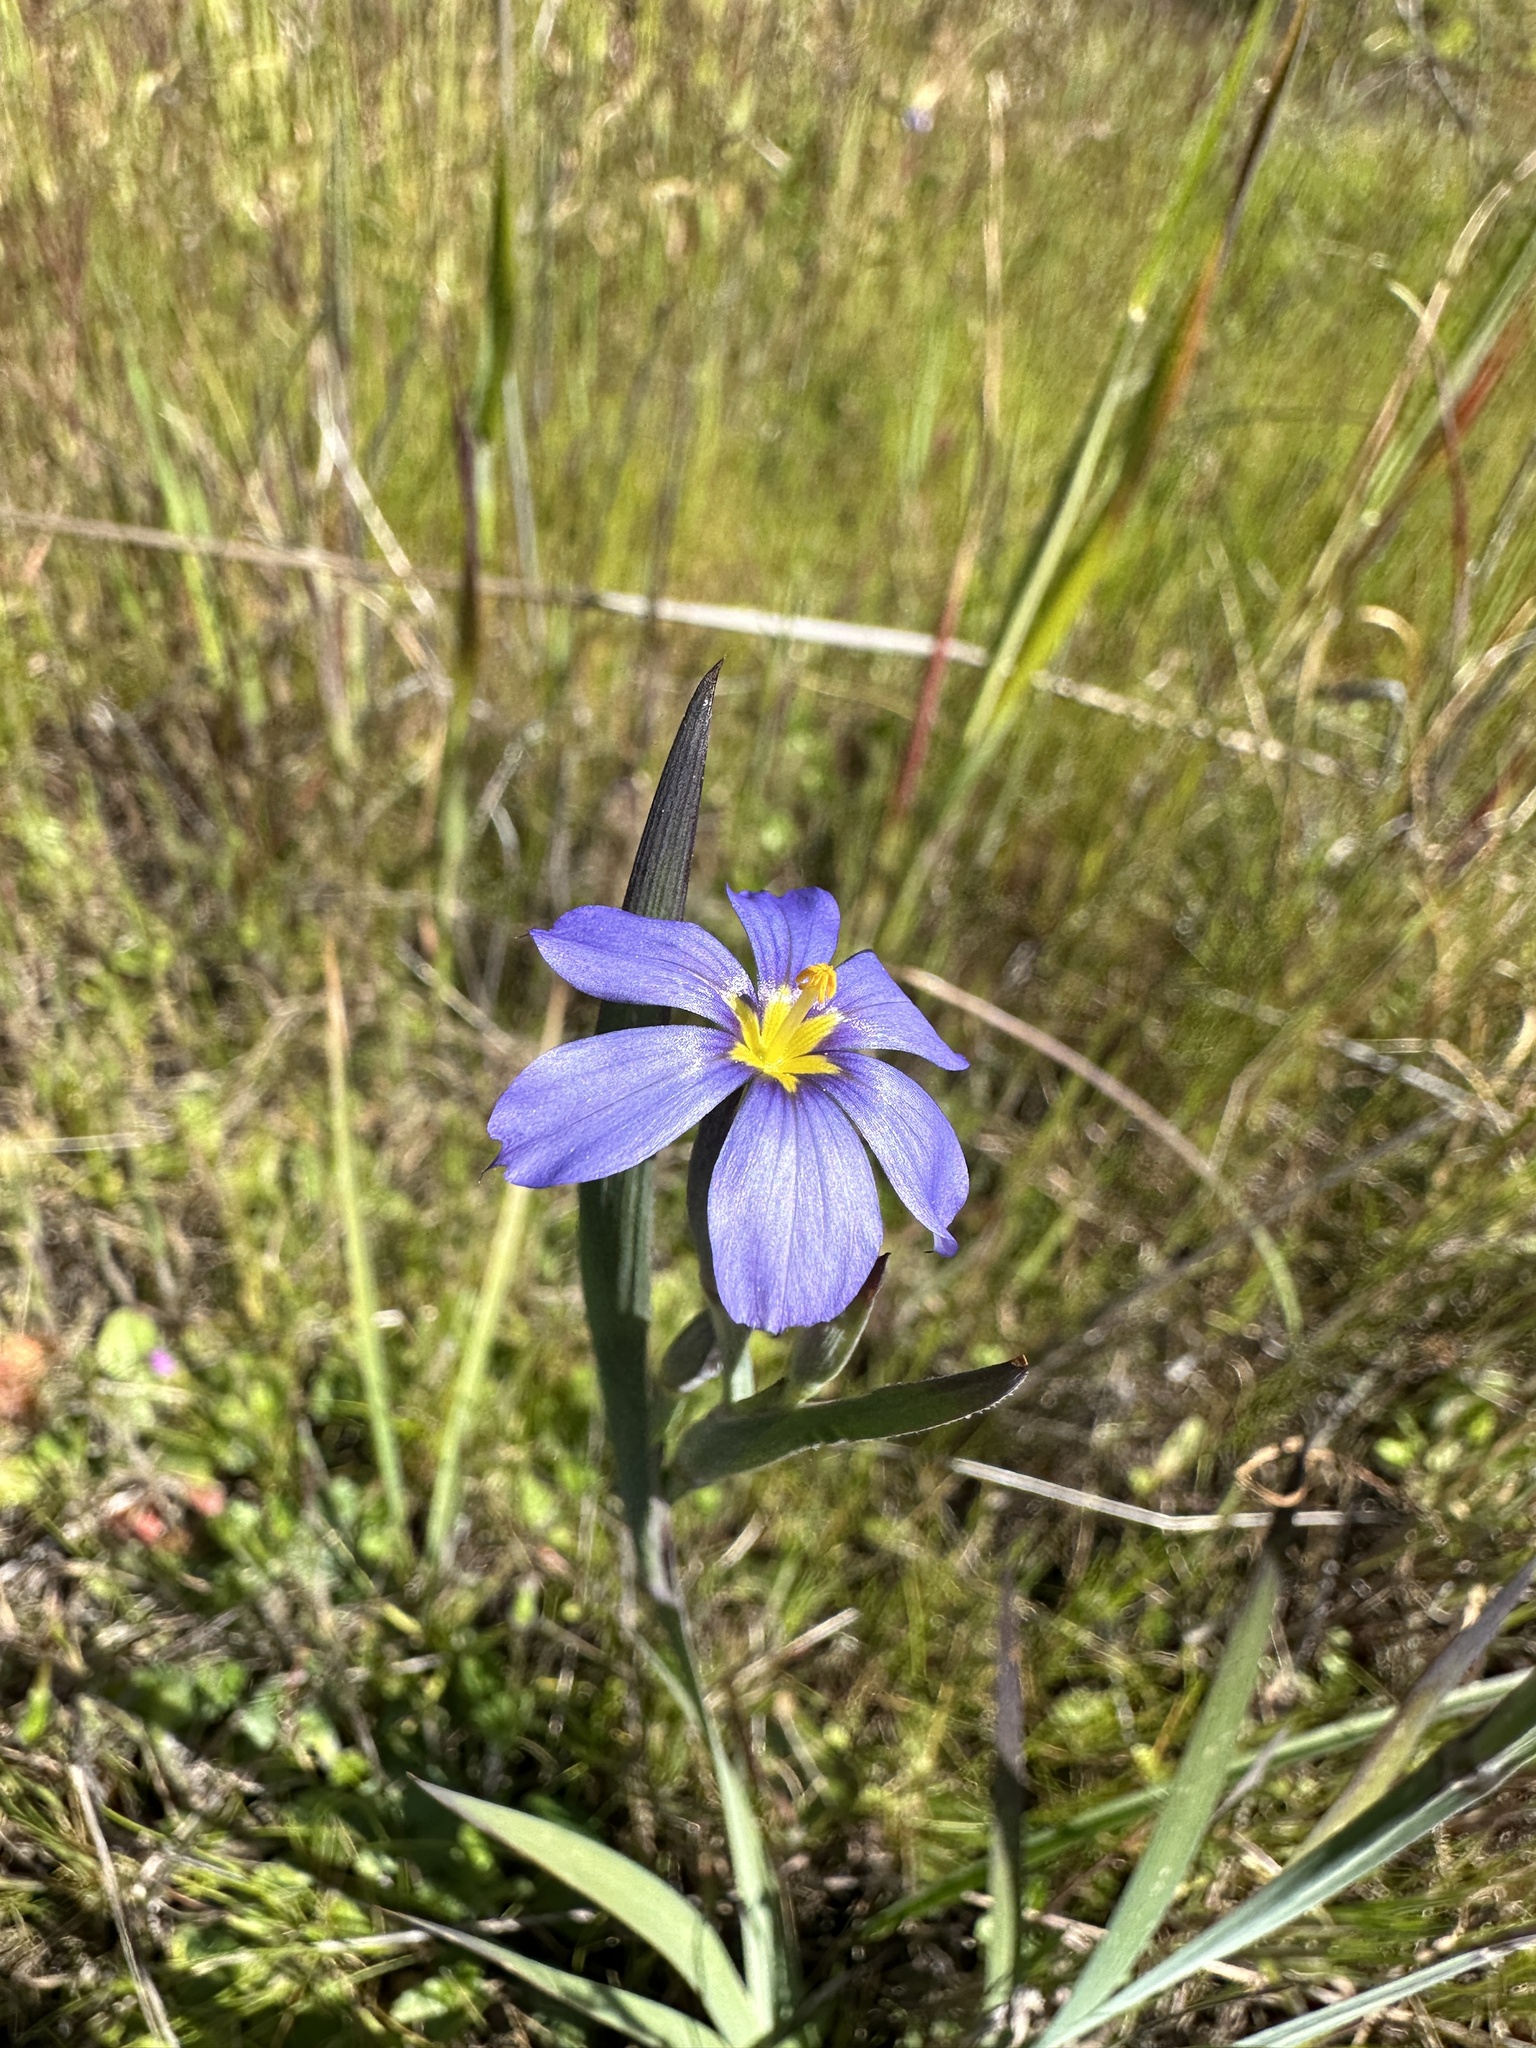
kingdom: Plantae
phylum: Tracheophyta
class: Liliopsida
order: Asparagales
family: Iridaceae
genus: Sisyrinchium
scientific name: Sisyrinchium bellum
